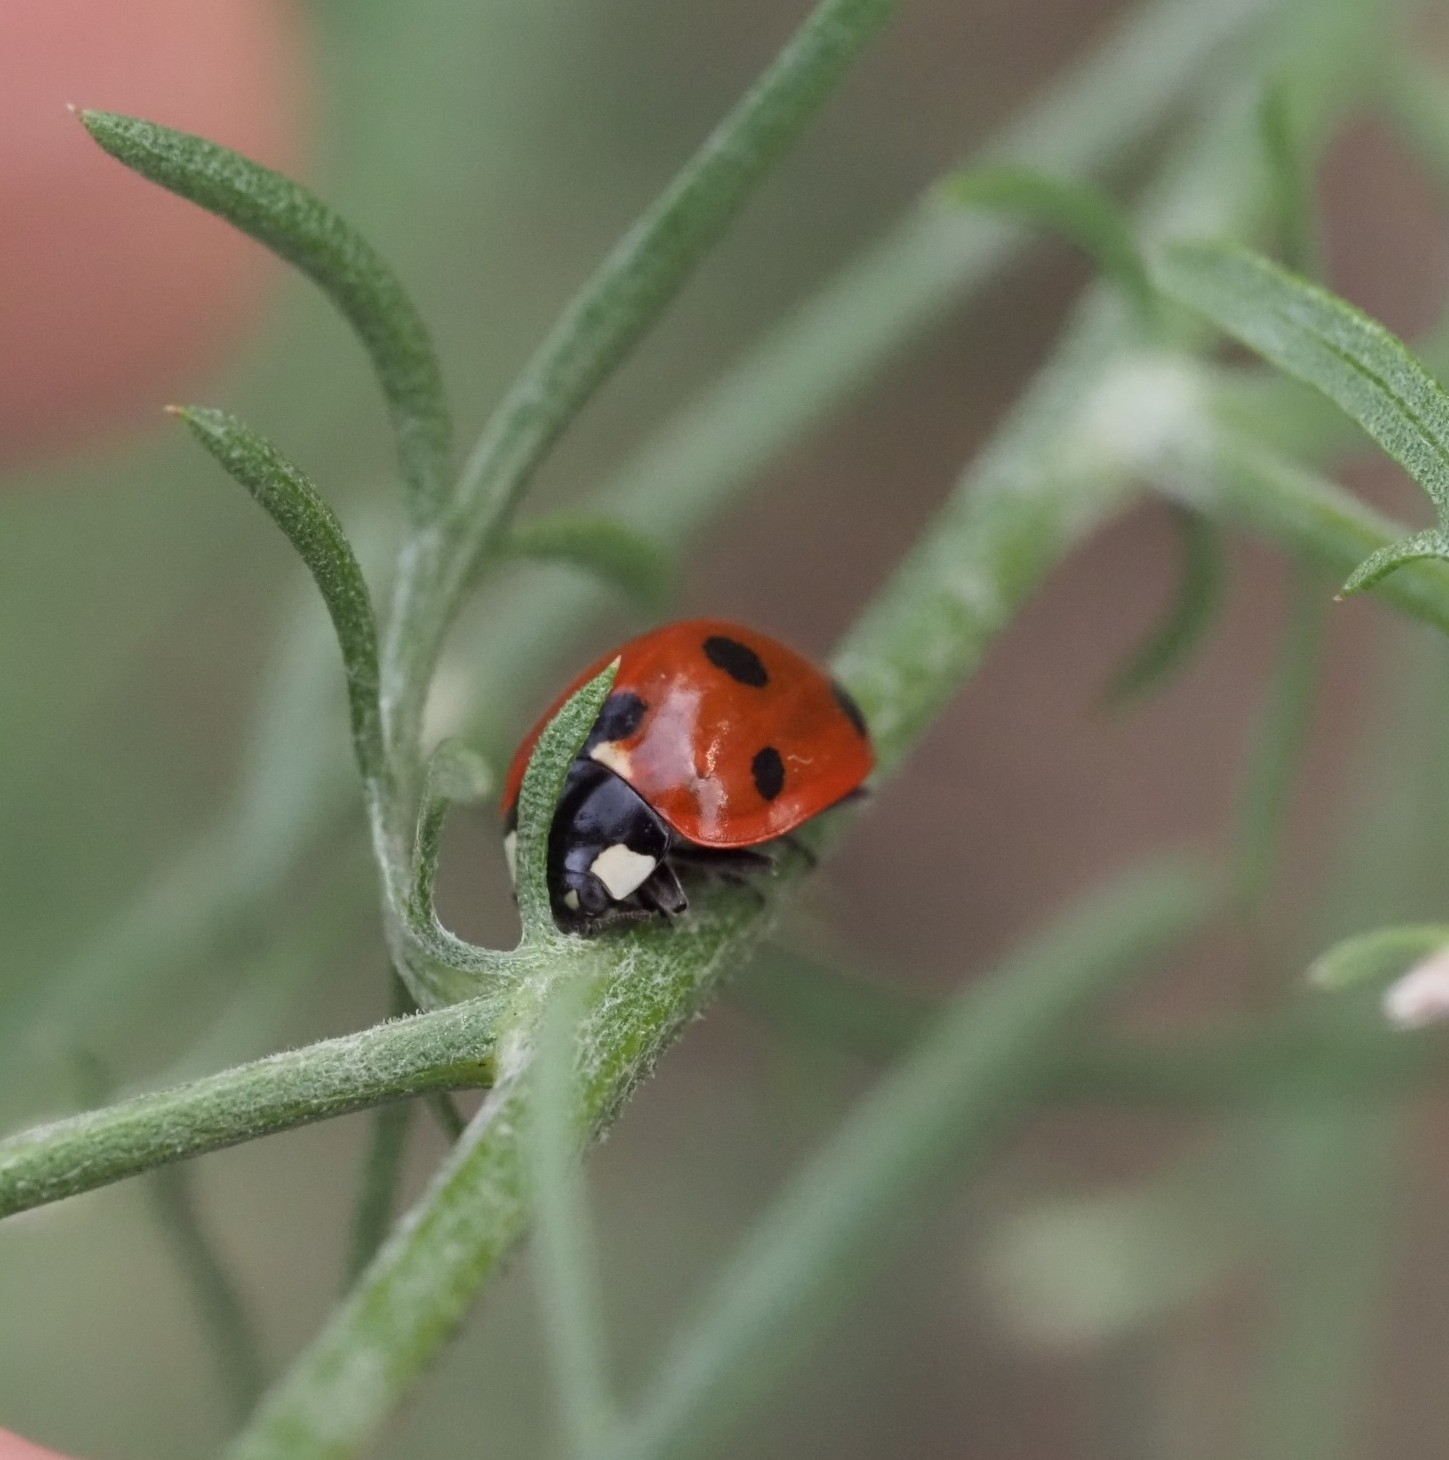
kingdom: Animalia
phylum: Arthropoda
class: Insecta
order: Coleoptera
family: Coccinellidae
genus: Coccinella
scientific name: Coccinella septempunctata
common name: Sevenspotted lady beetle
